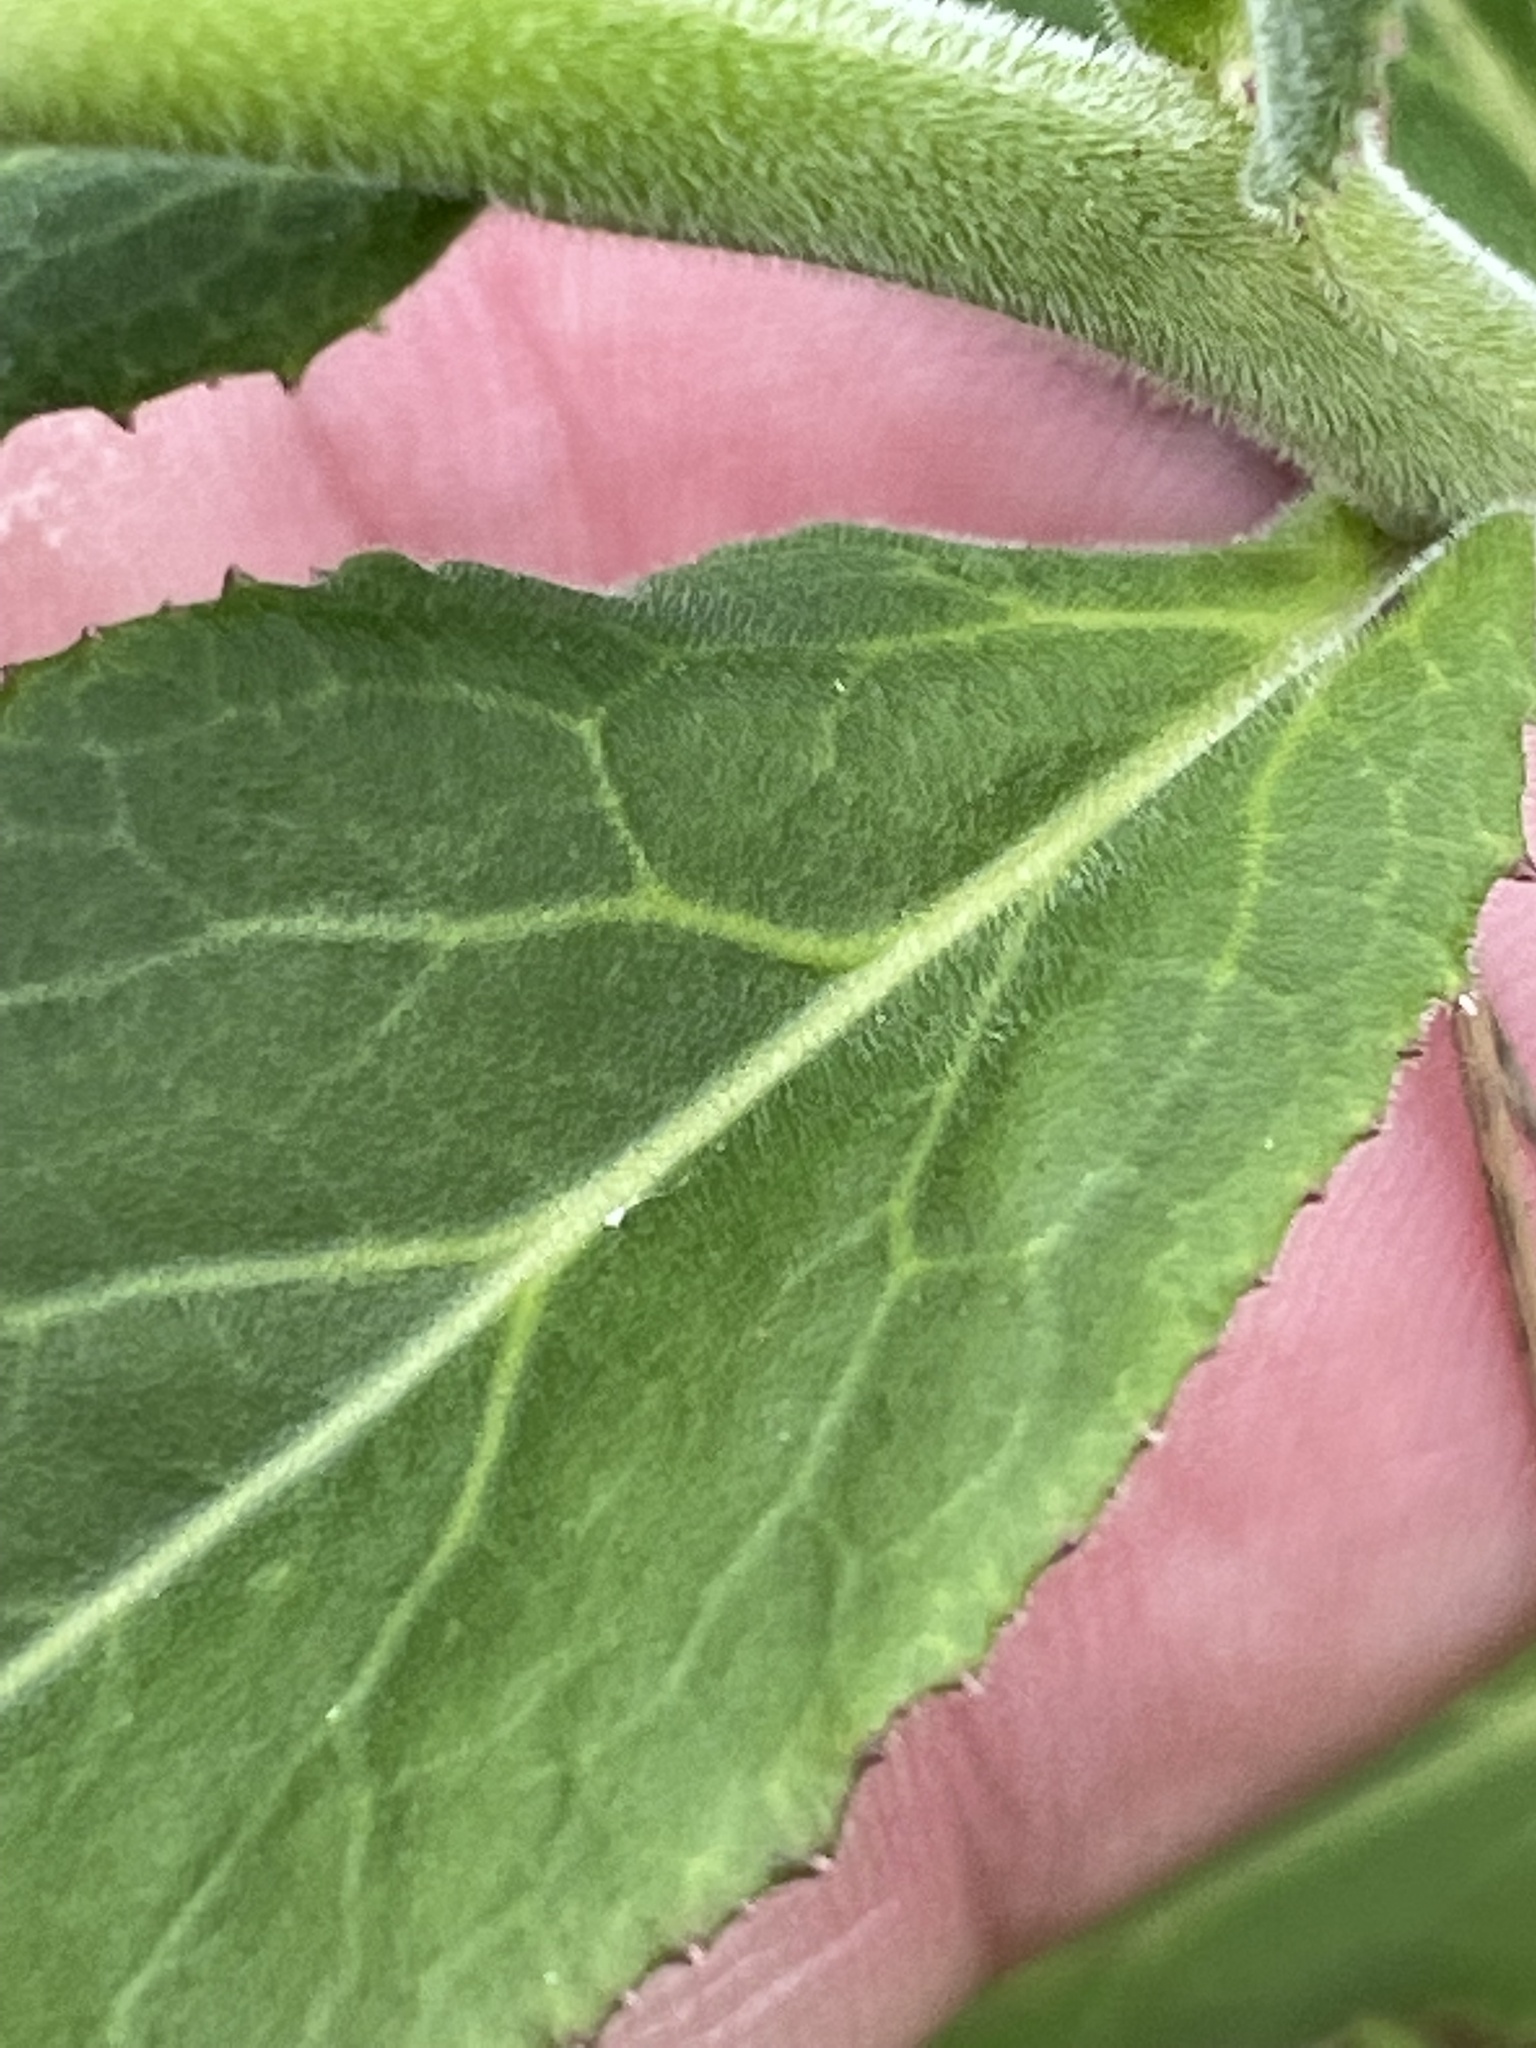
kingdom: Plantae
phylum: Tracheophyta
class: Magnoliopsida
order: Asterales
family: Campanulaceae
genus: Lobelia
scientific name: Lobelia puberula
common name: Purple dewdrop
